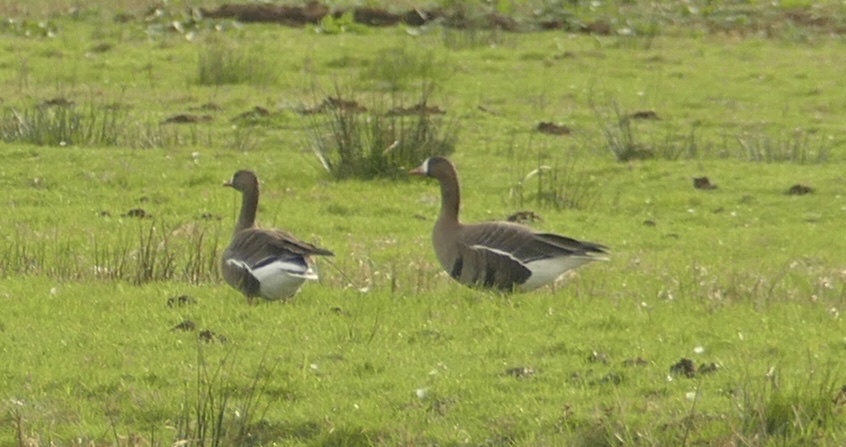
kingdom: Animalia
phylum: Chordata
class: Aves
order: Anseriformes
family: Anatidae
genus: Anser
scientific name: Anser albifrons
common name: Greater white-fronted goose
